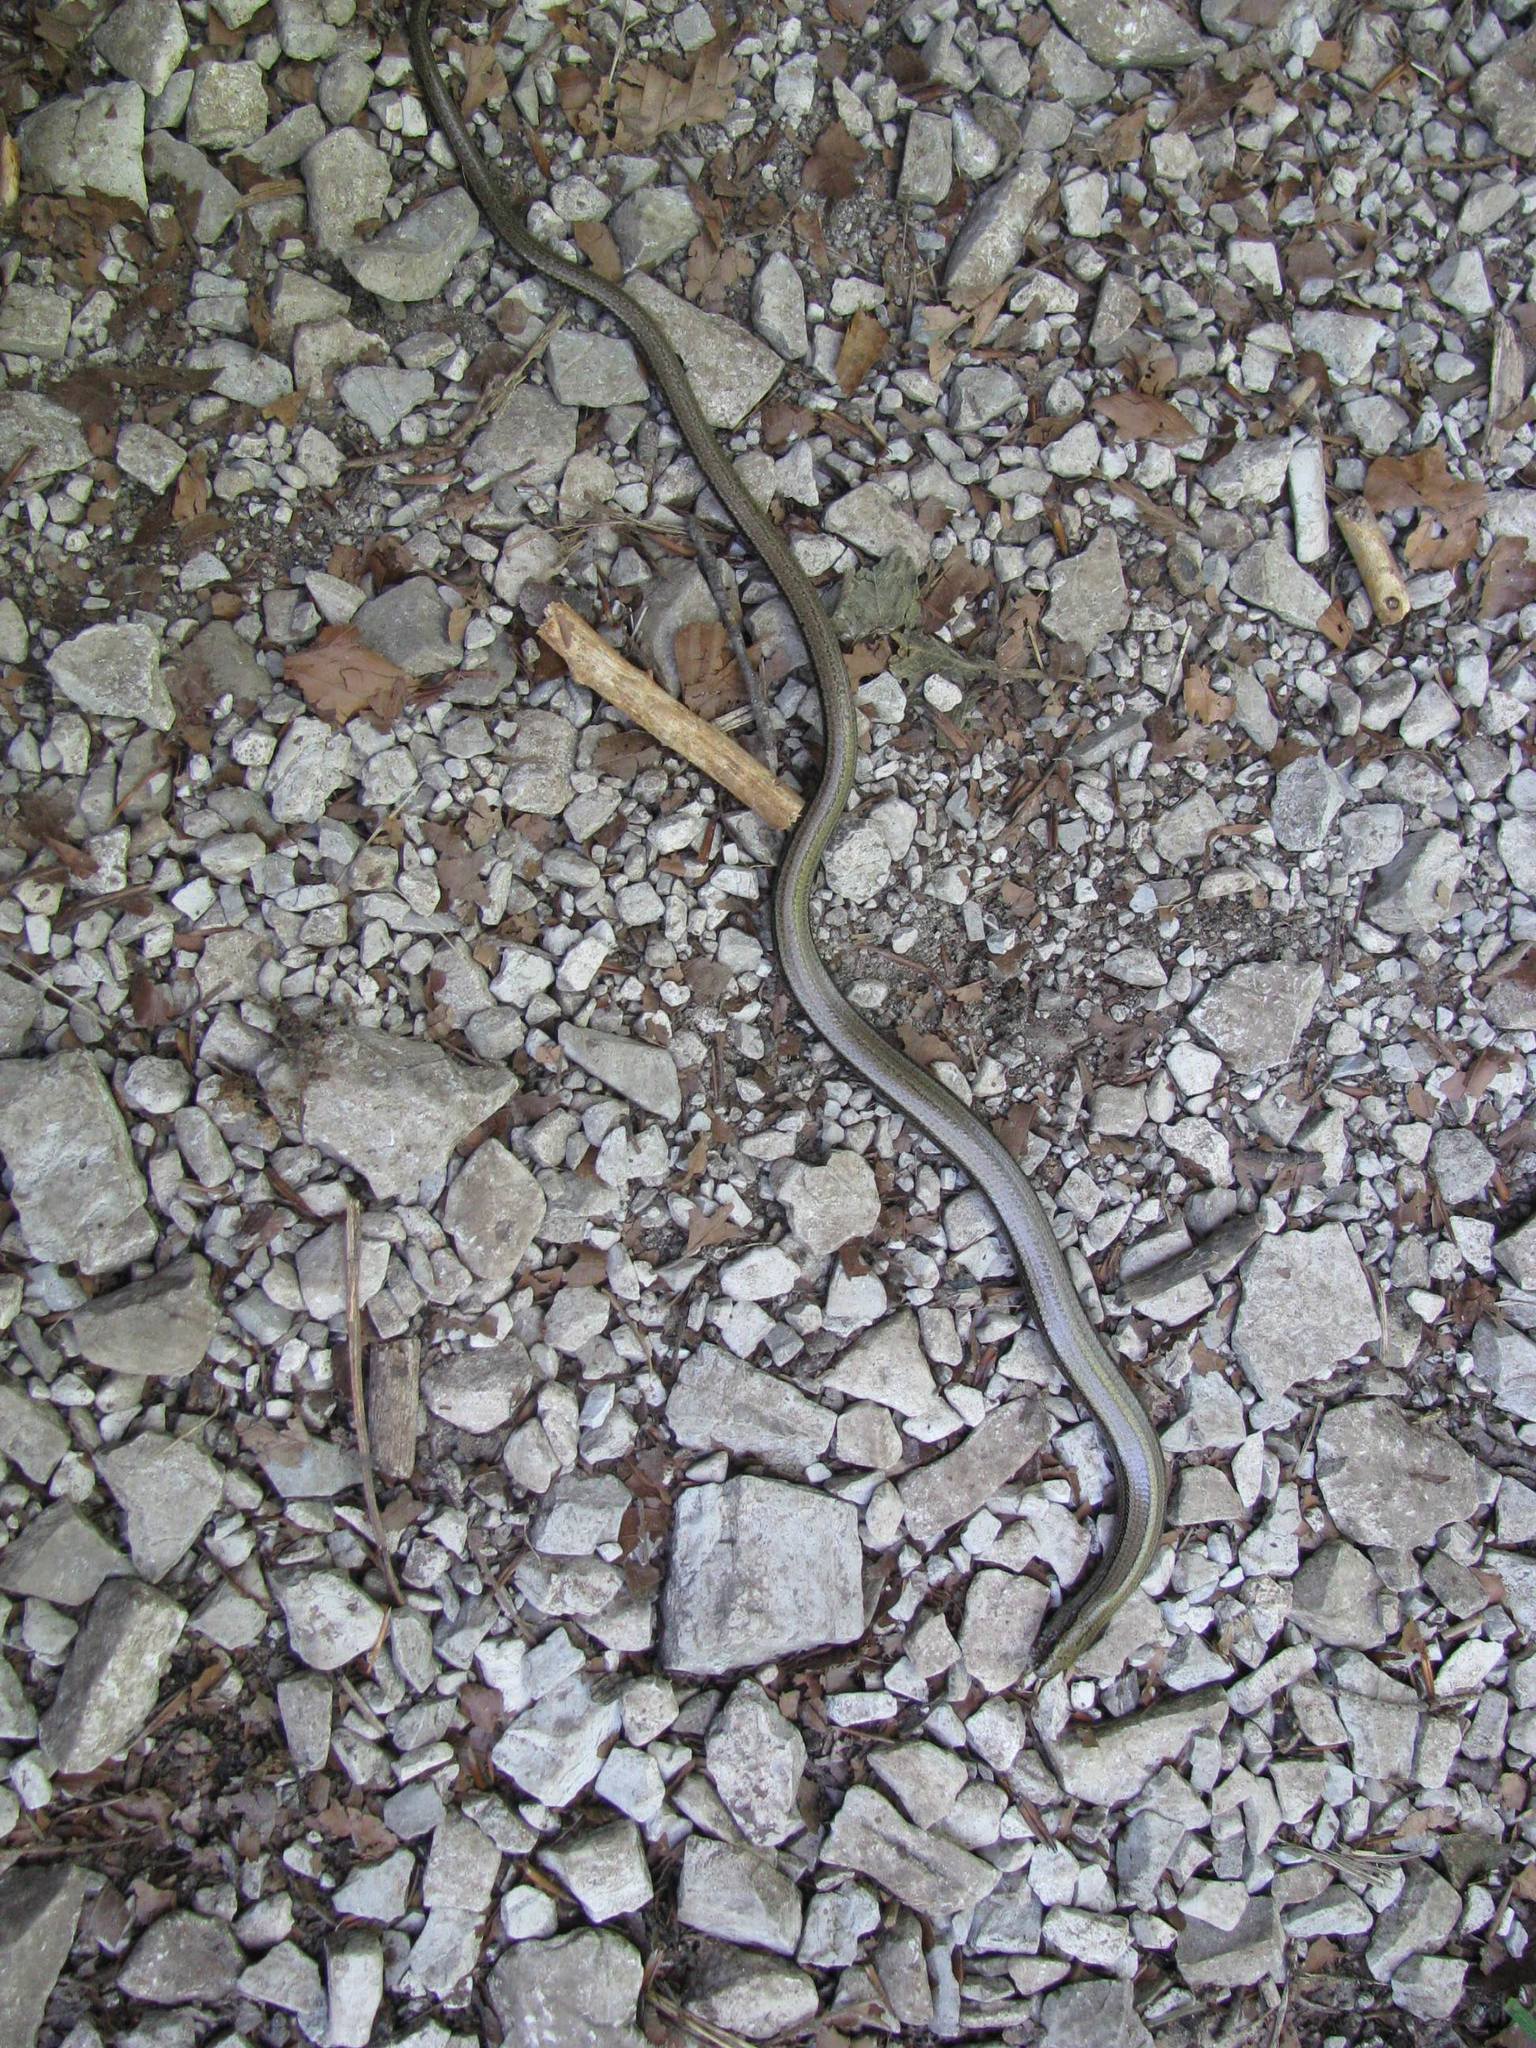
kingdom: Animalia
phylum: Chordata
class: Squamata
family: Anguidae
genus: Anguis
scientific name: Anguis fragilis
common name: Slow worm
